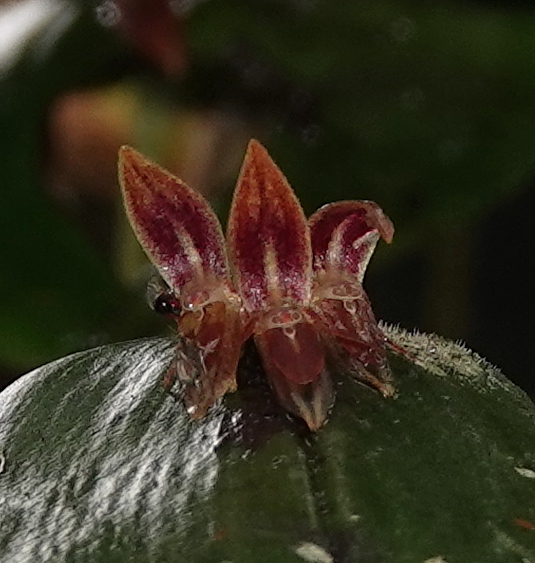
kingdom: Plantae
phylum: Tracheophyta
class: Liliopsida
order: Asparagales
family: Orchidaceae
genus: Pleurothallis
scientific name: Pleurothallis coriacardia
